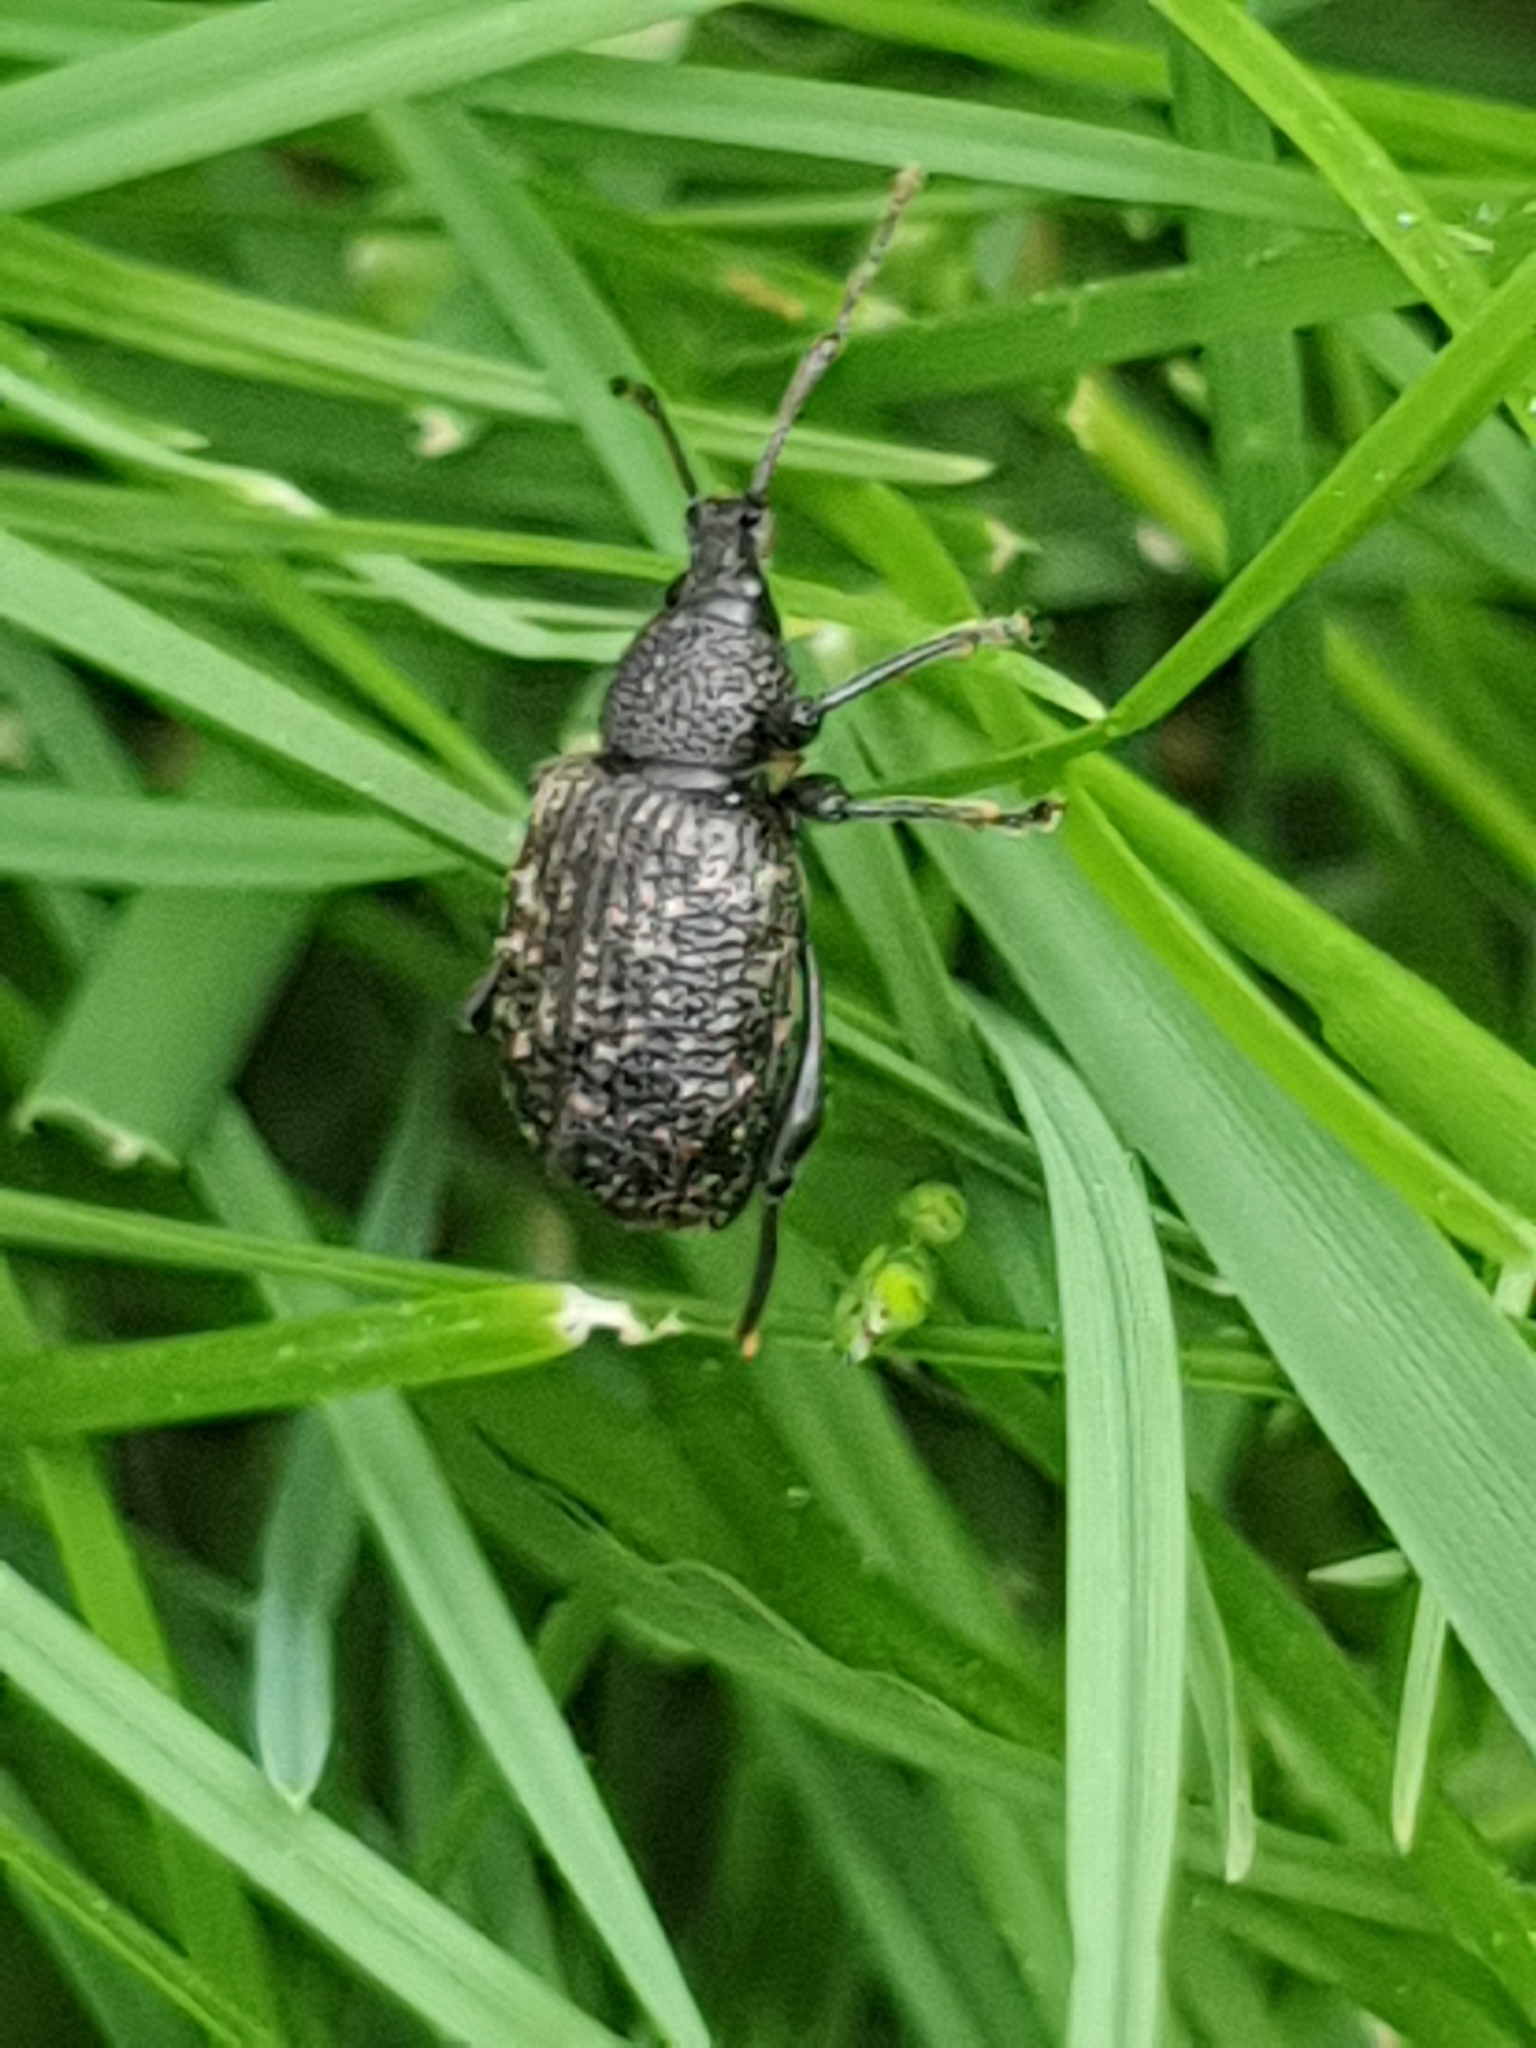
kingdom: Animalia
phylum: Arthropoda
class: Insecta
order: Coleoptera
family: Curculionidae
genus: Otiorhynchus
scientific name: Otiorhynchus sulcatus
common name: Black vine weevil
